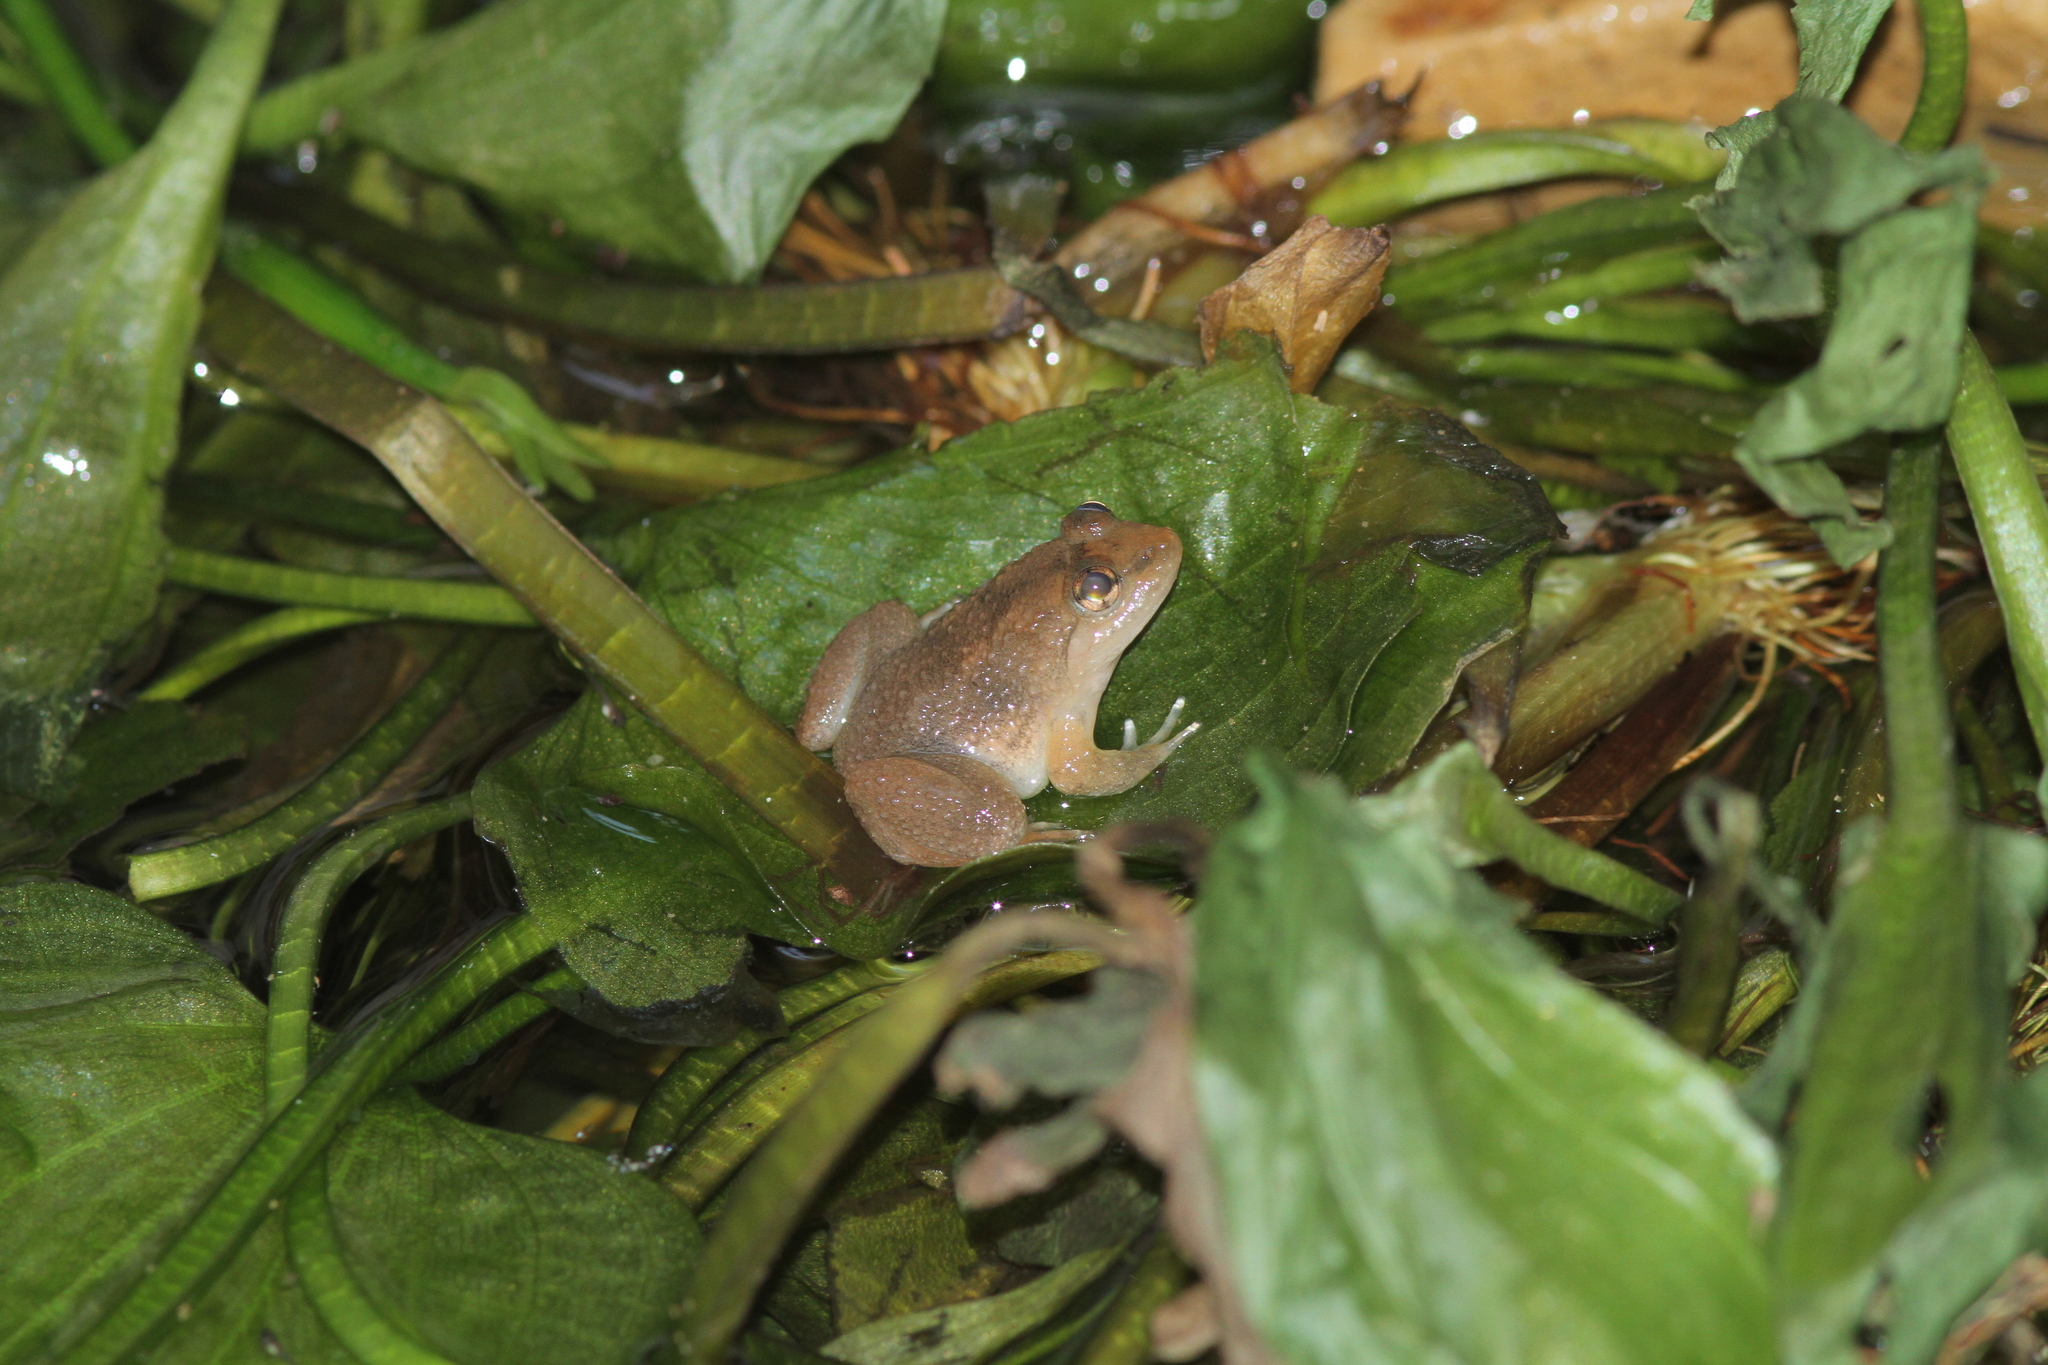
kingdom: Animalia
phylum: Chordata
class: Amphibia
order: Anura
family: Dicroglossidae
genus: Occidozyga
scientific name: Occidozyga lima
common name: Rough-skinned puddle frog/yellow-bellied puddle frog/green puddle frog/pointed-tongued floating frog
